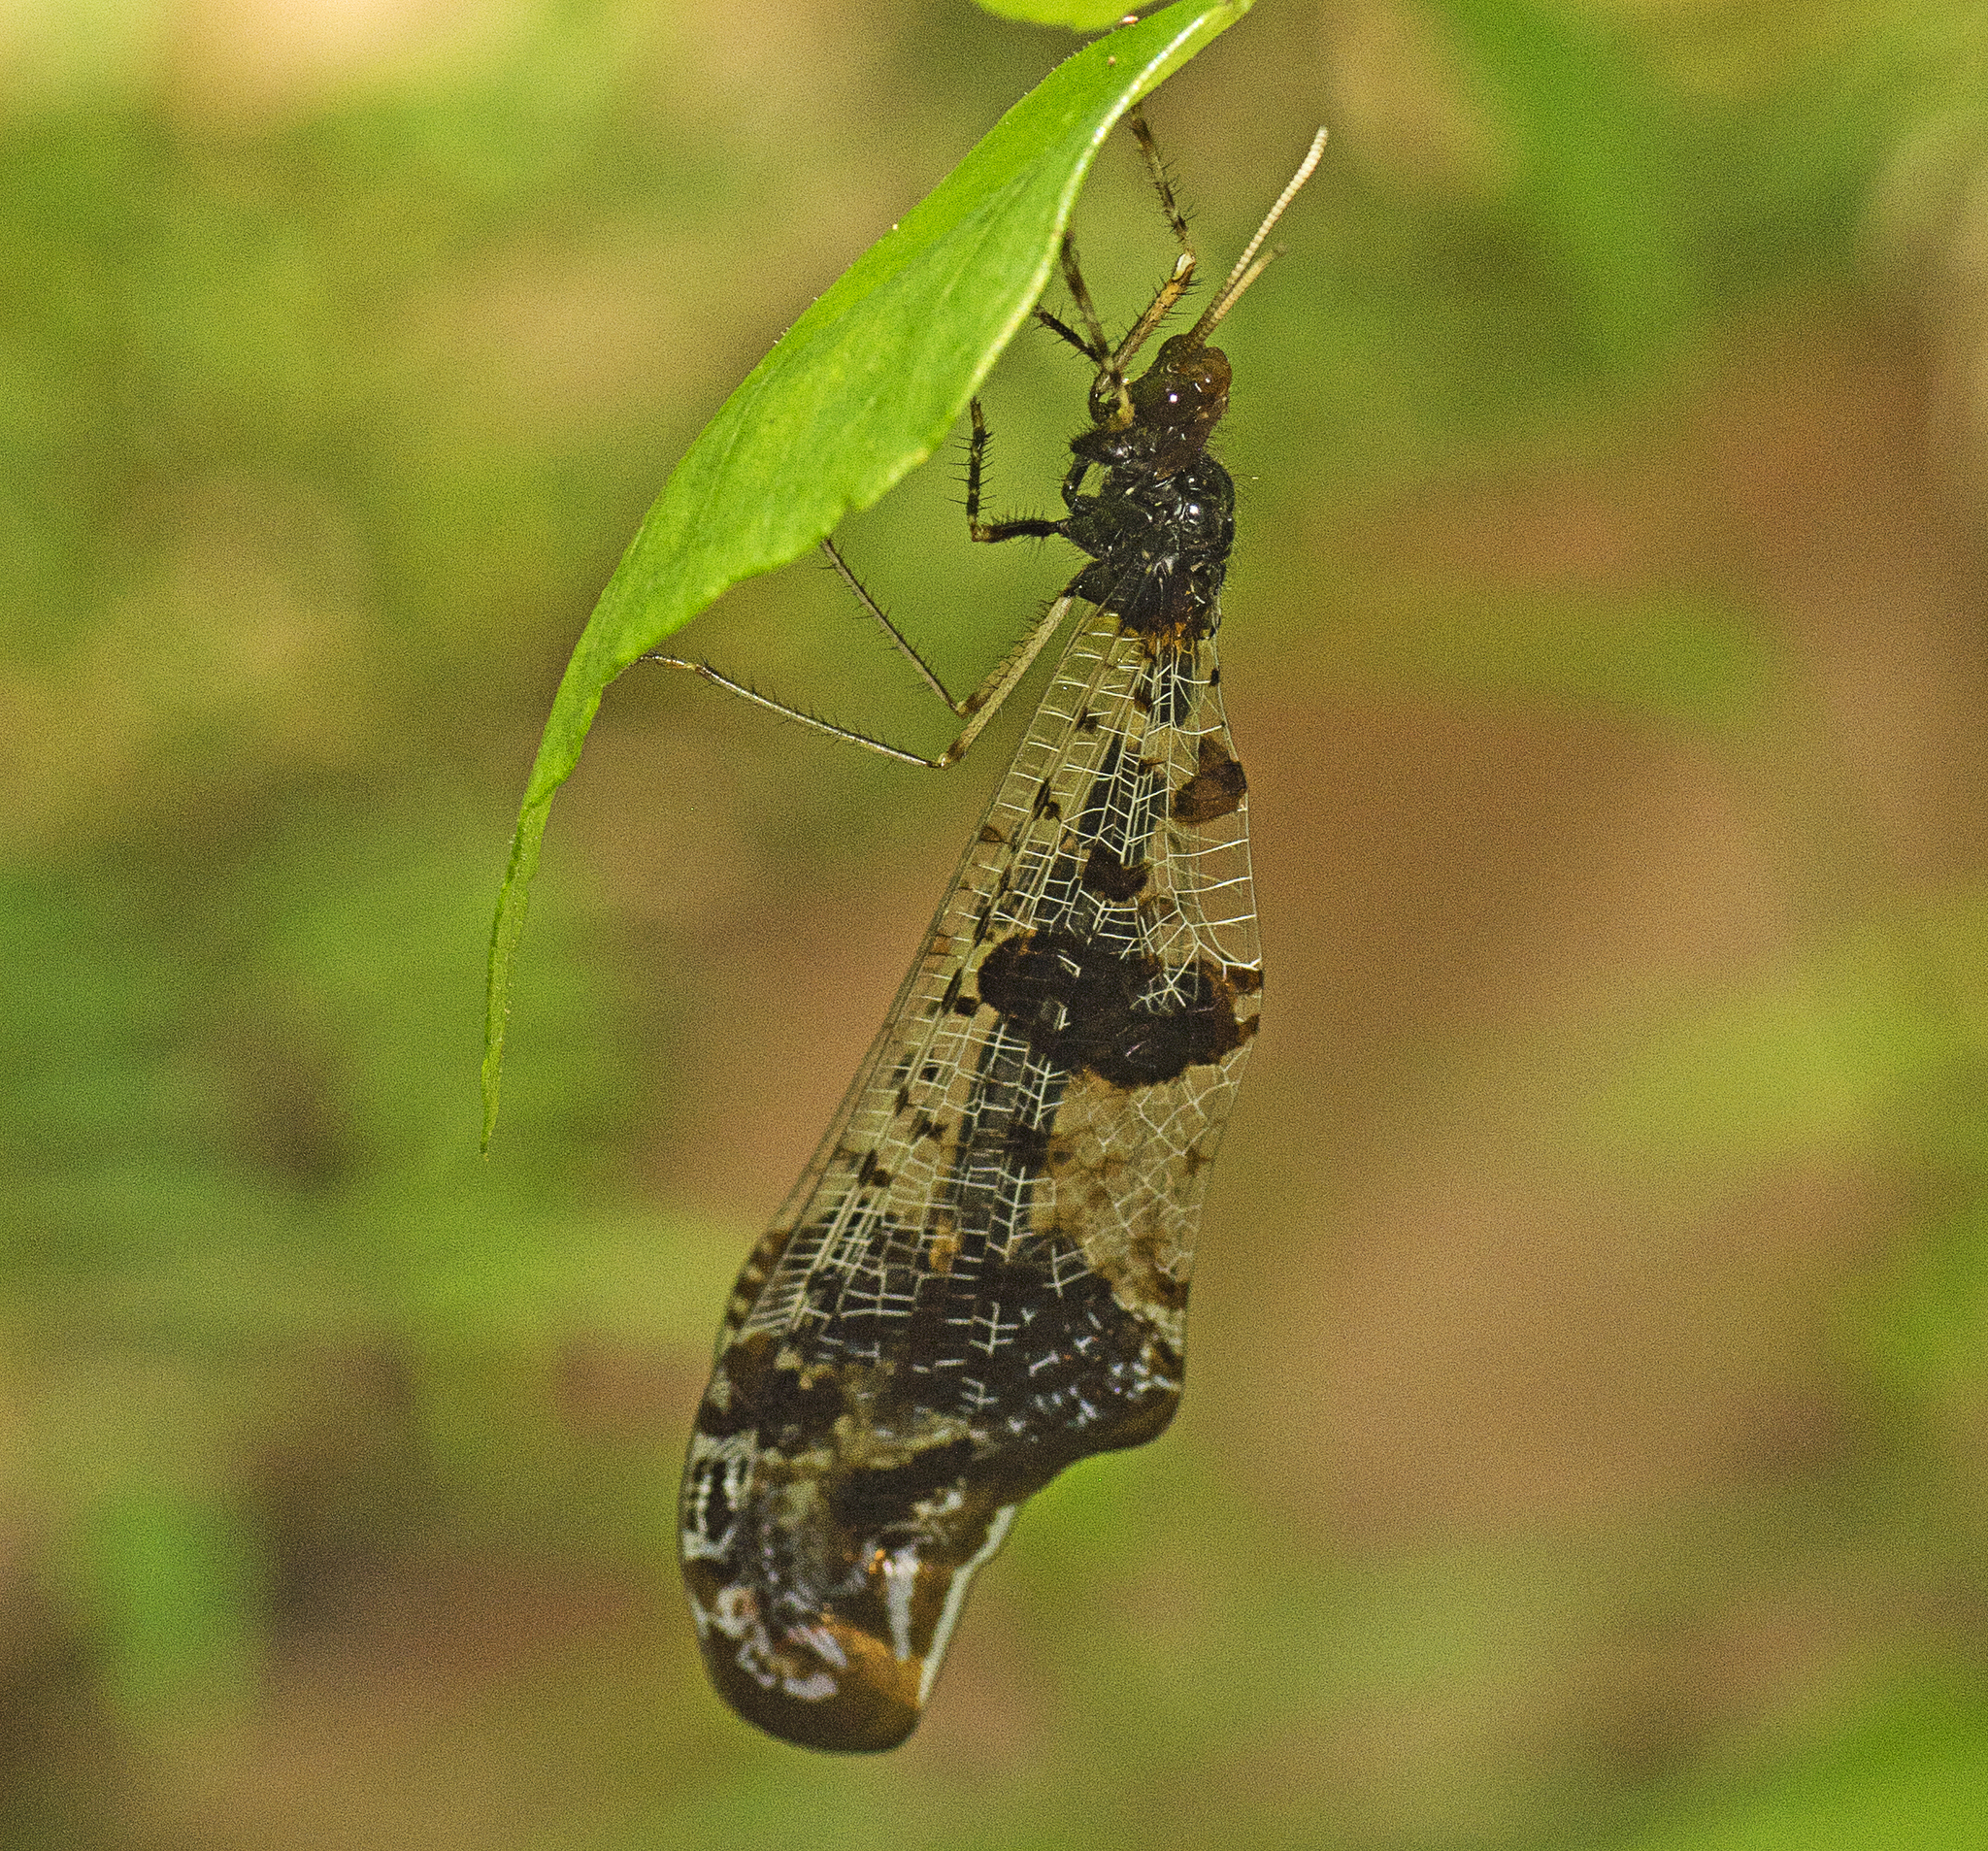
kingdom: Animalia
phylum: Arthropoda
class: Insecta
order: Neuroptera
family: Myrmeleontidae
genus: Periclystus
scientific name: Periclystus circuiter
